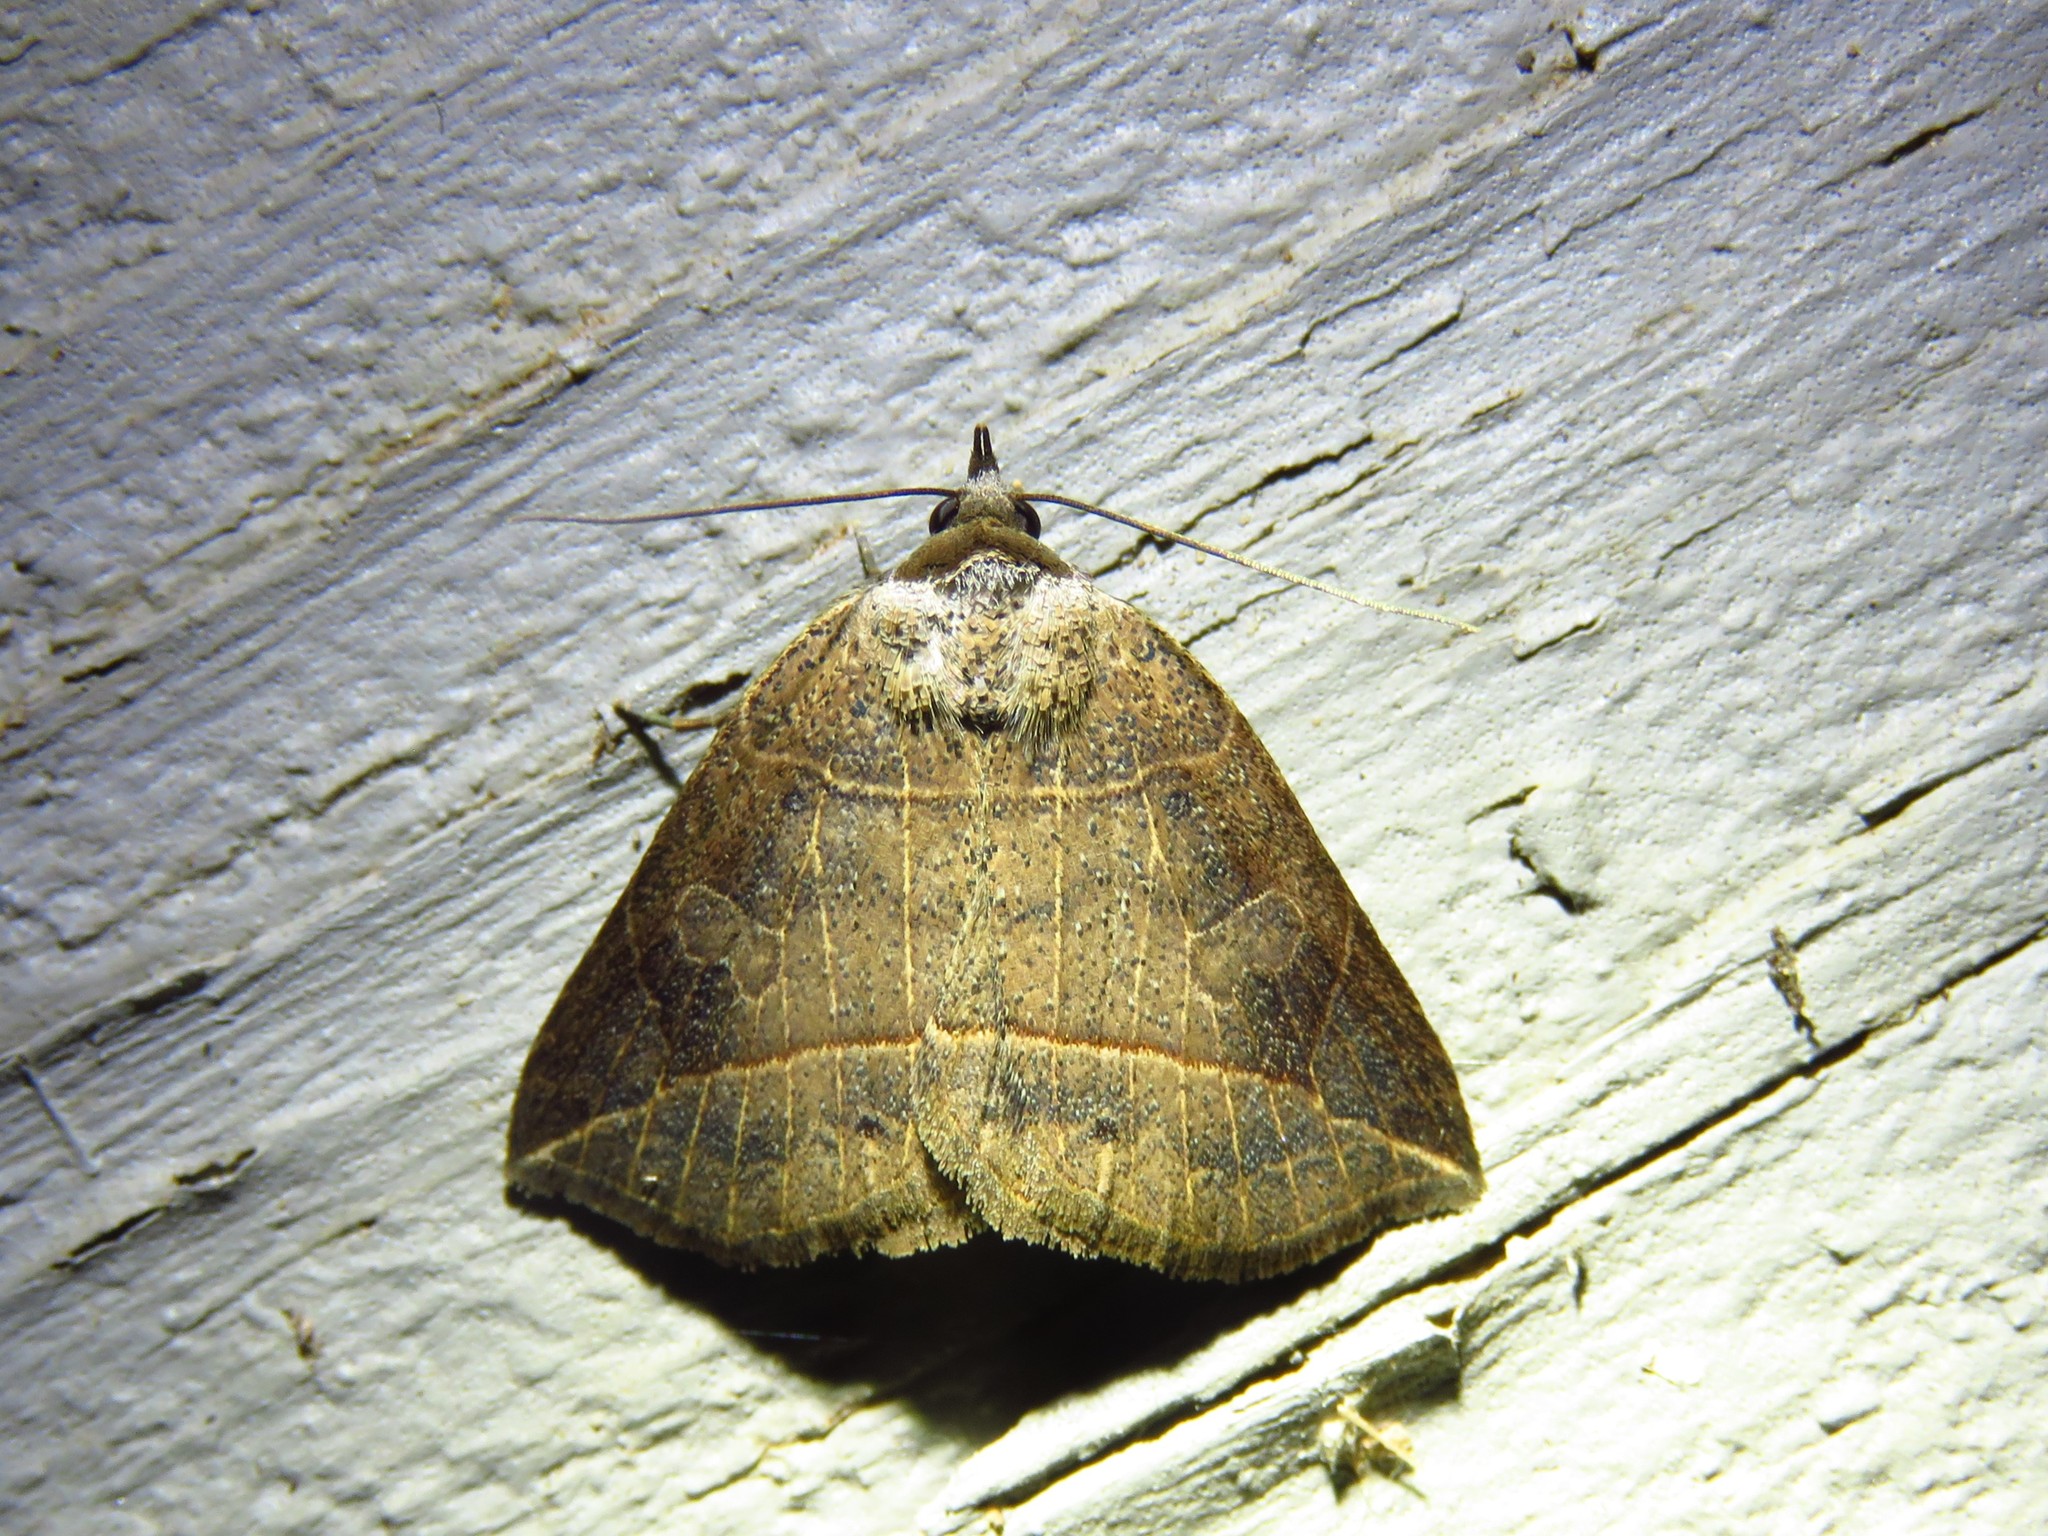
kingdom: Animalia
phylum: Arthropoda
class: Insecta
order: Lepidoptera
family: Erebidae
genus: Isogona
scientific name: Isogona tenuis
